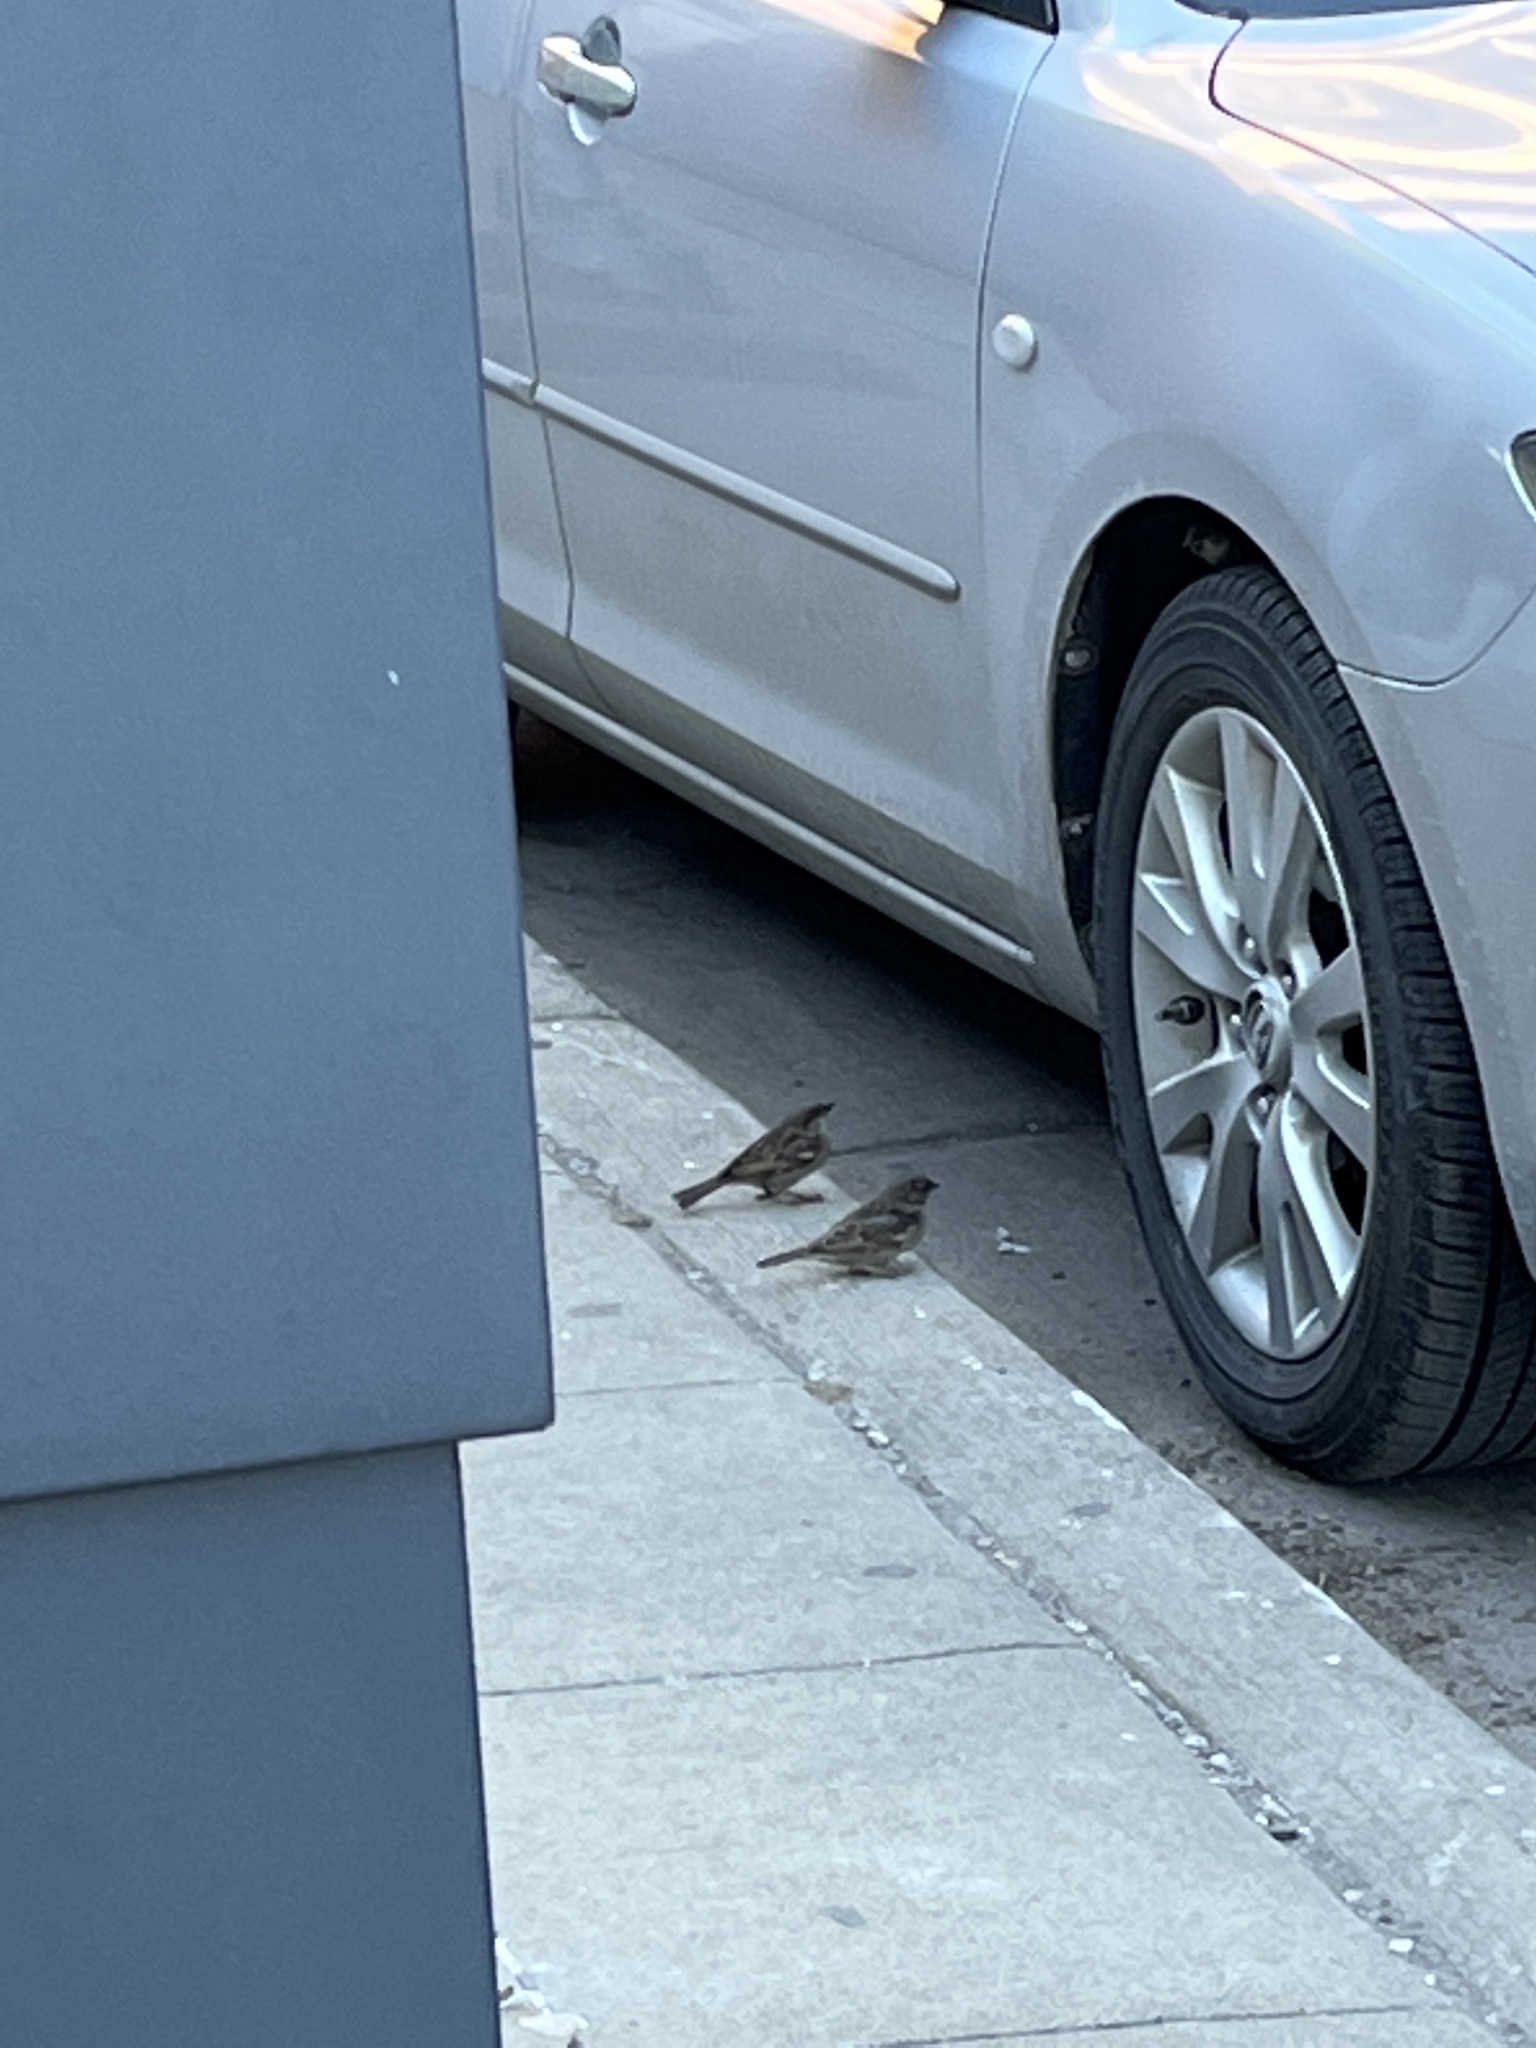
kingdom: Animalia
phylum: Chordata
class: Aves
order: Passeriformes
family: Passeridae
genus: Passer
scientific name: Passer domesticus
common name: House sparrow
